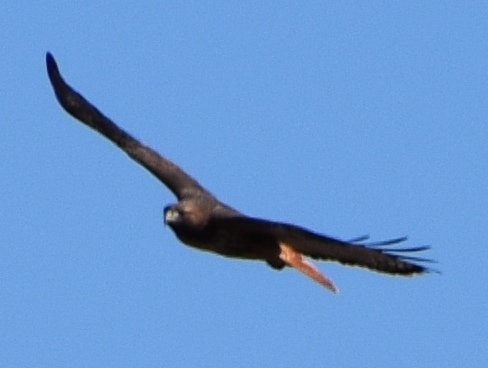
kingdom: Animalia
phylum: Chordata
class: Aves
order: Accipitriformes
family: Accipitridae
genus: Buteo
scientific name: Buteo jamaicensis
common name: Red-tailed hawk
